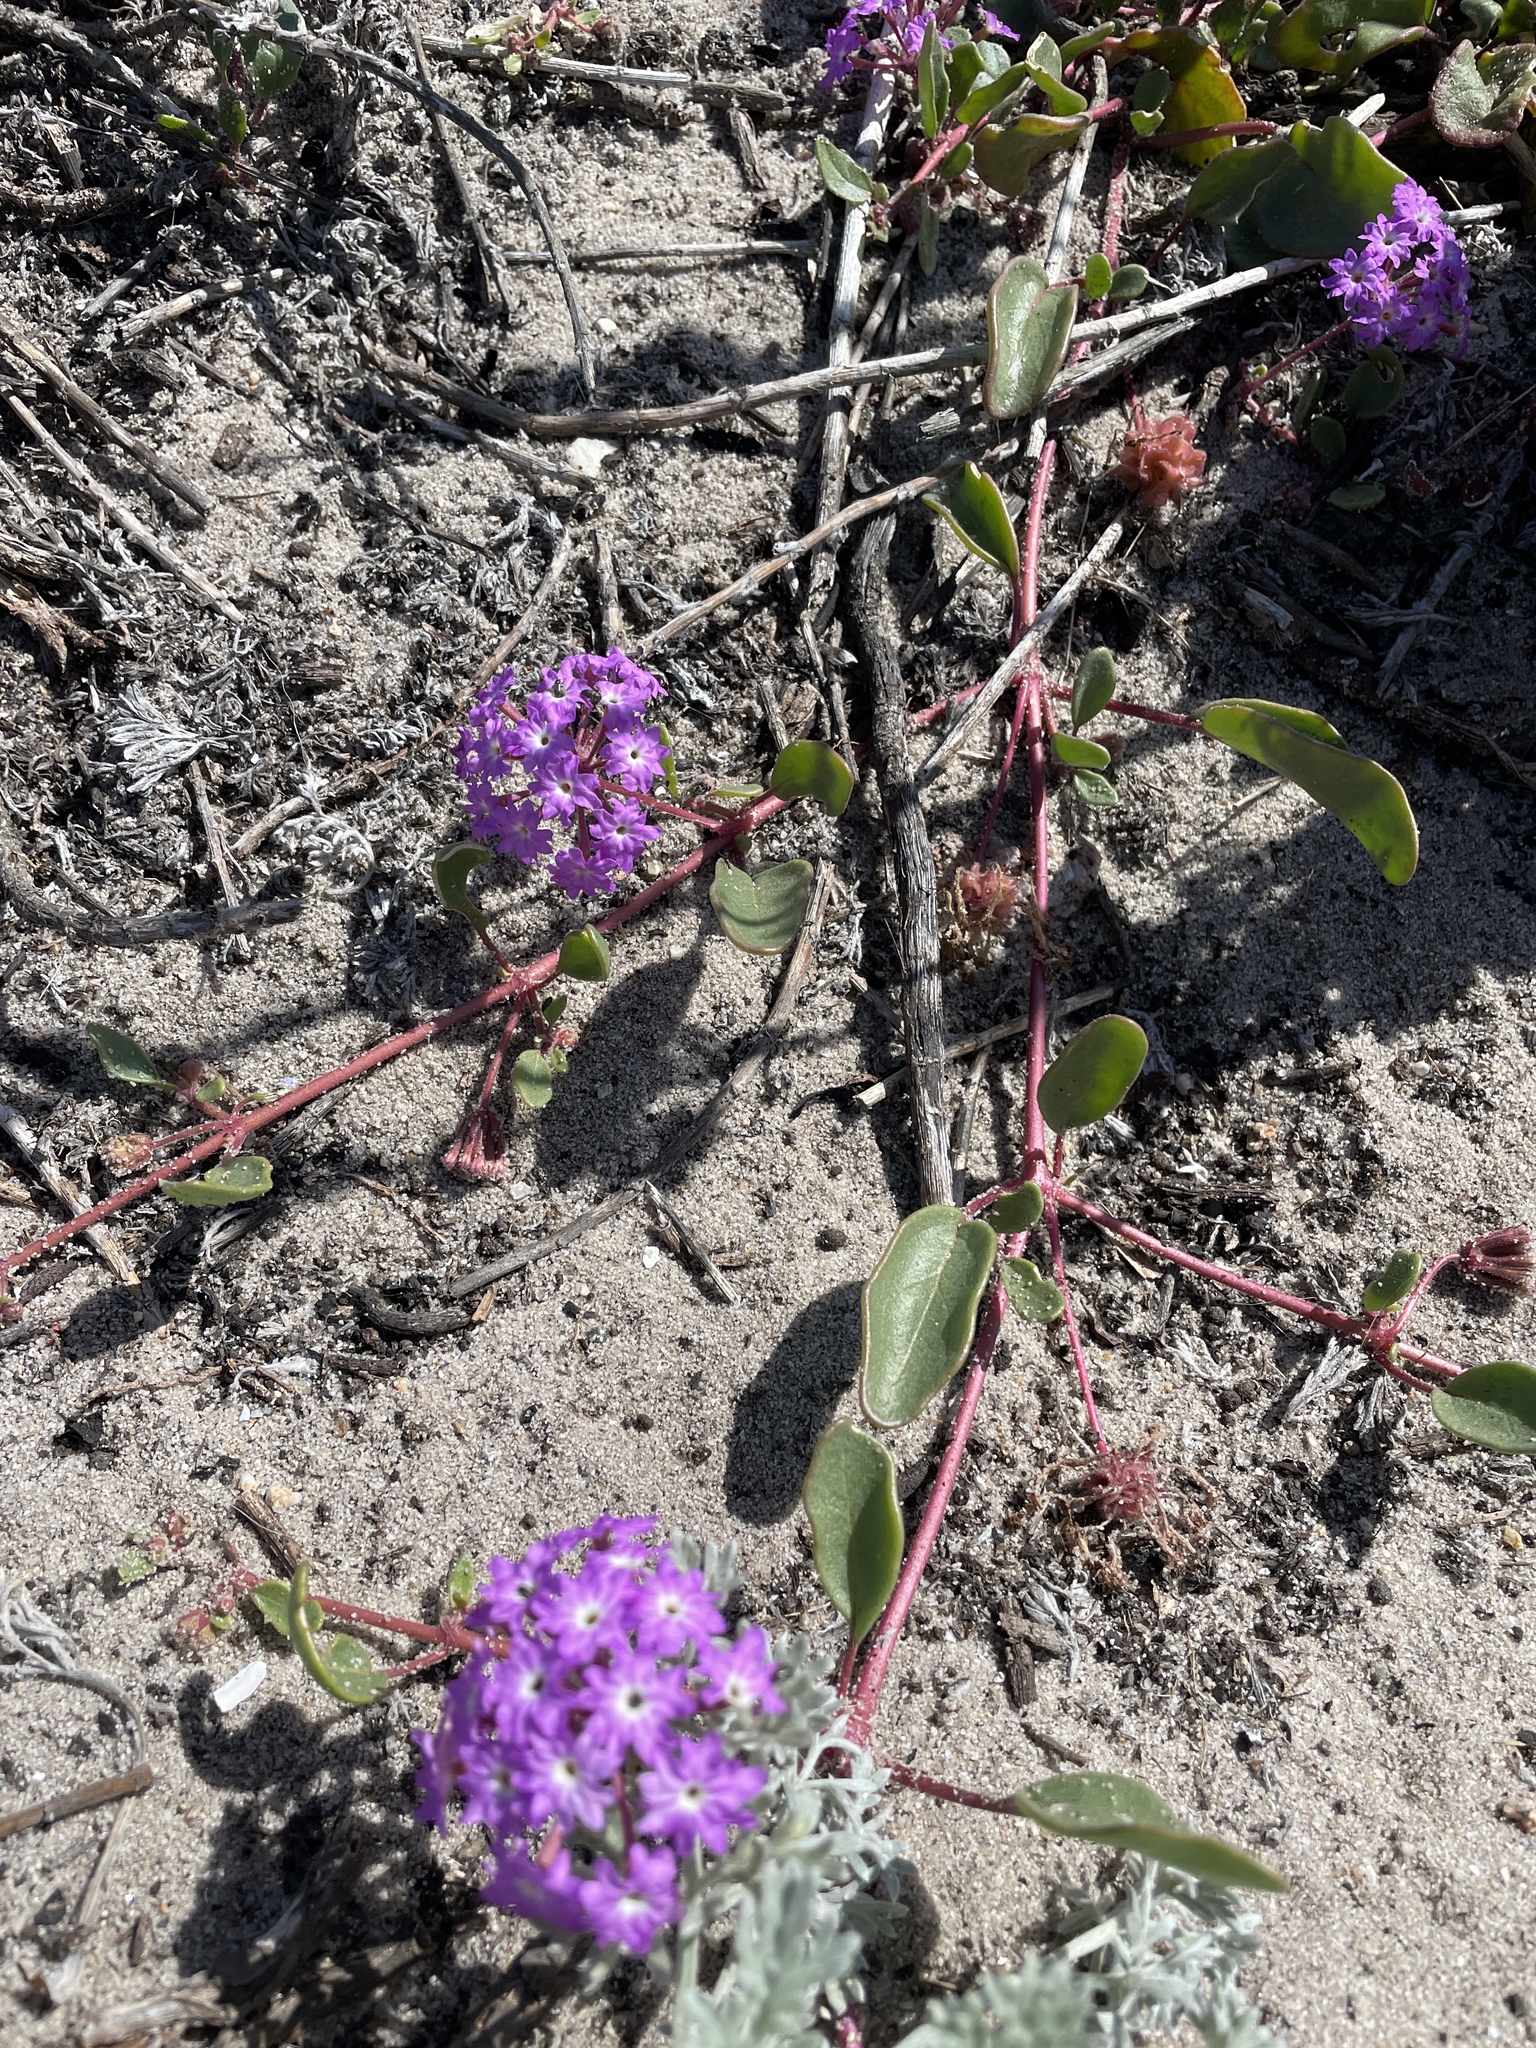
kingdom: Plantae
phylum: Tracheophyta
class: Magnoliopsida
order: Caryophyllales
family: Nyctaginaceae
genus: Abronia
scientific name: Abronia umbellata
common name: Sand-verbena
